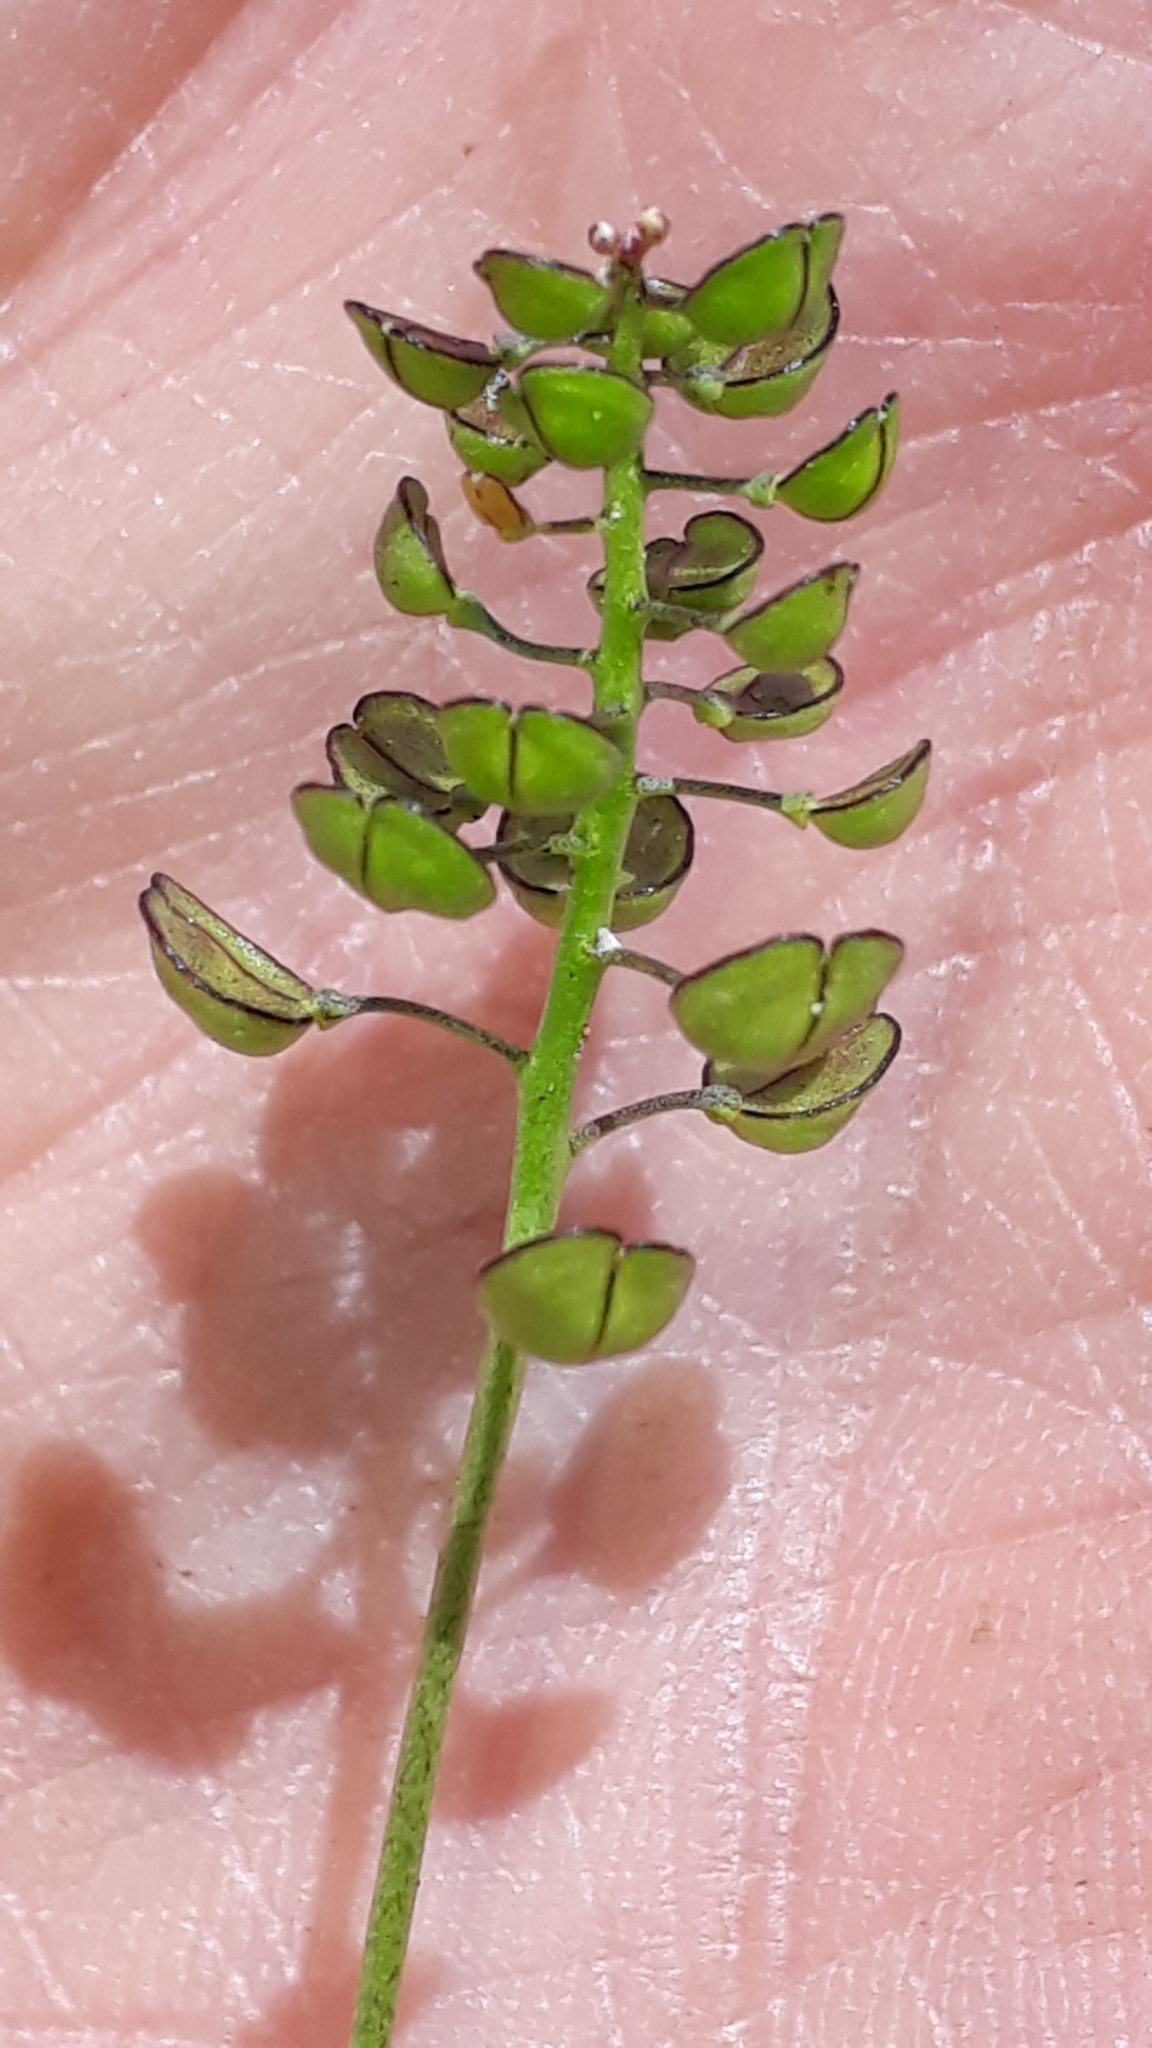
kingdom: Plantae
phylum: Tracheophyta
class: Magnoliopsida
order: Brassicales
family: Brassicaceae
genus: Teesdalia
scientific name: Teesdalia coronopifolia
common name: Lesser shepherdscress
